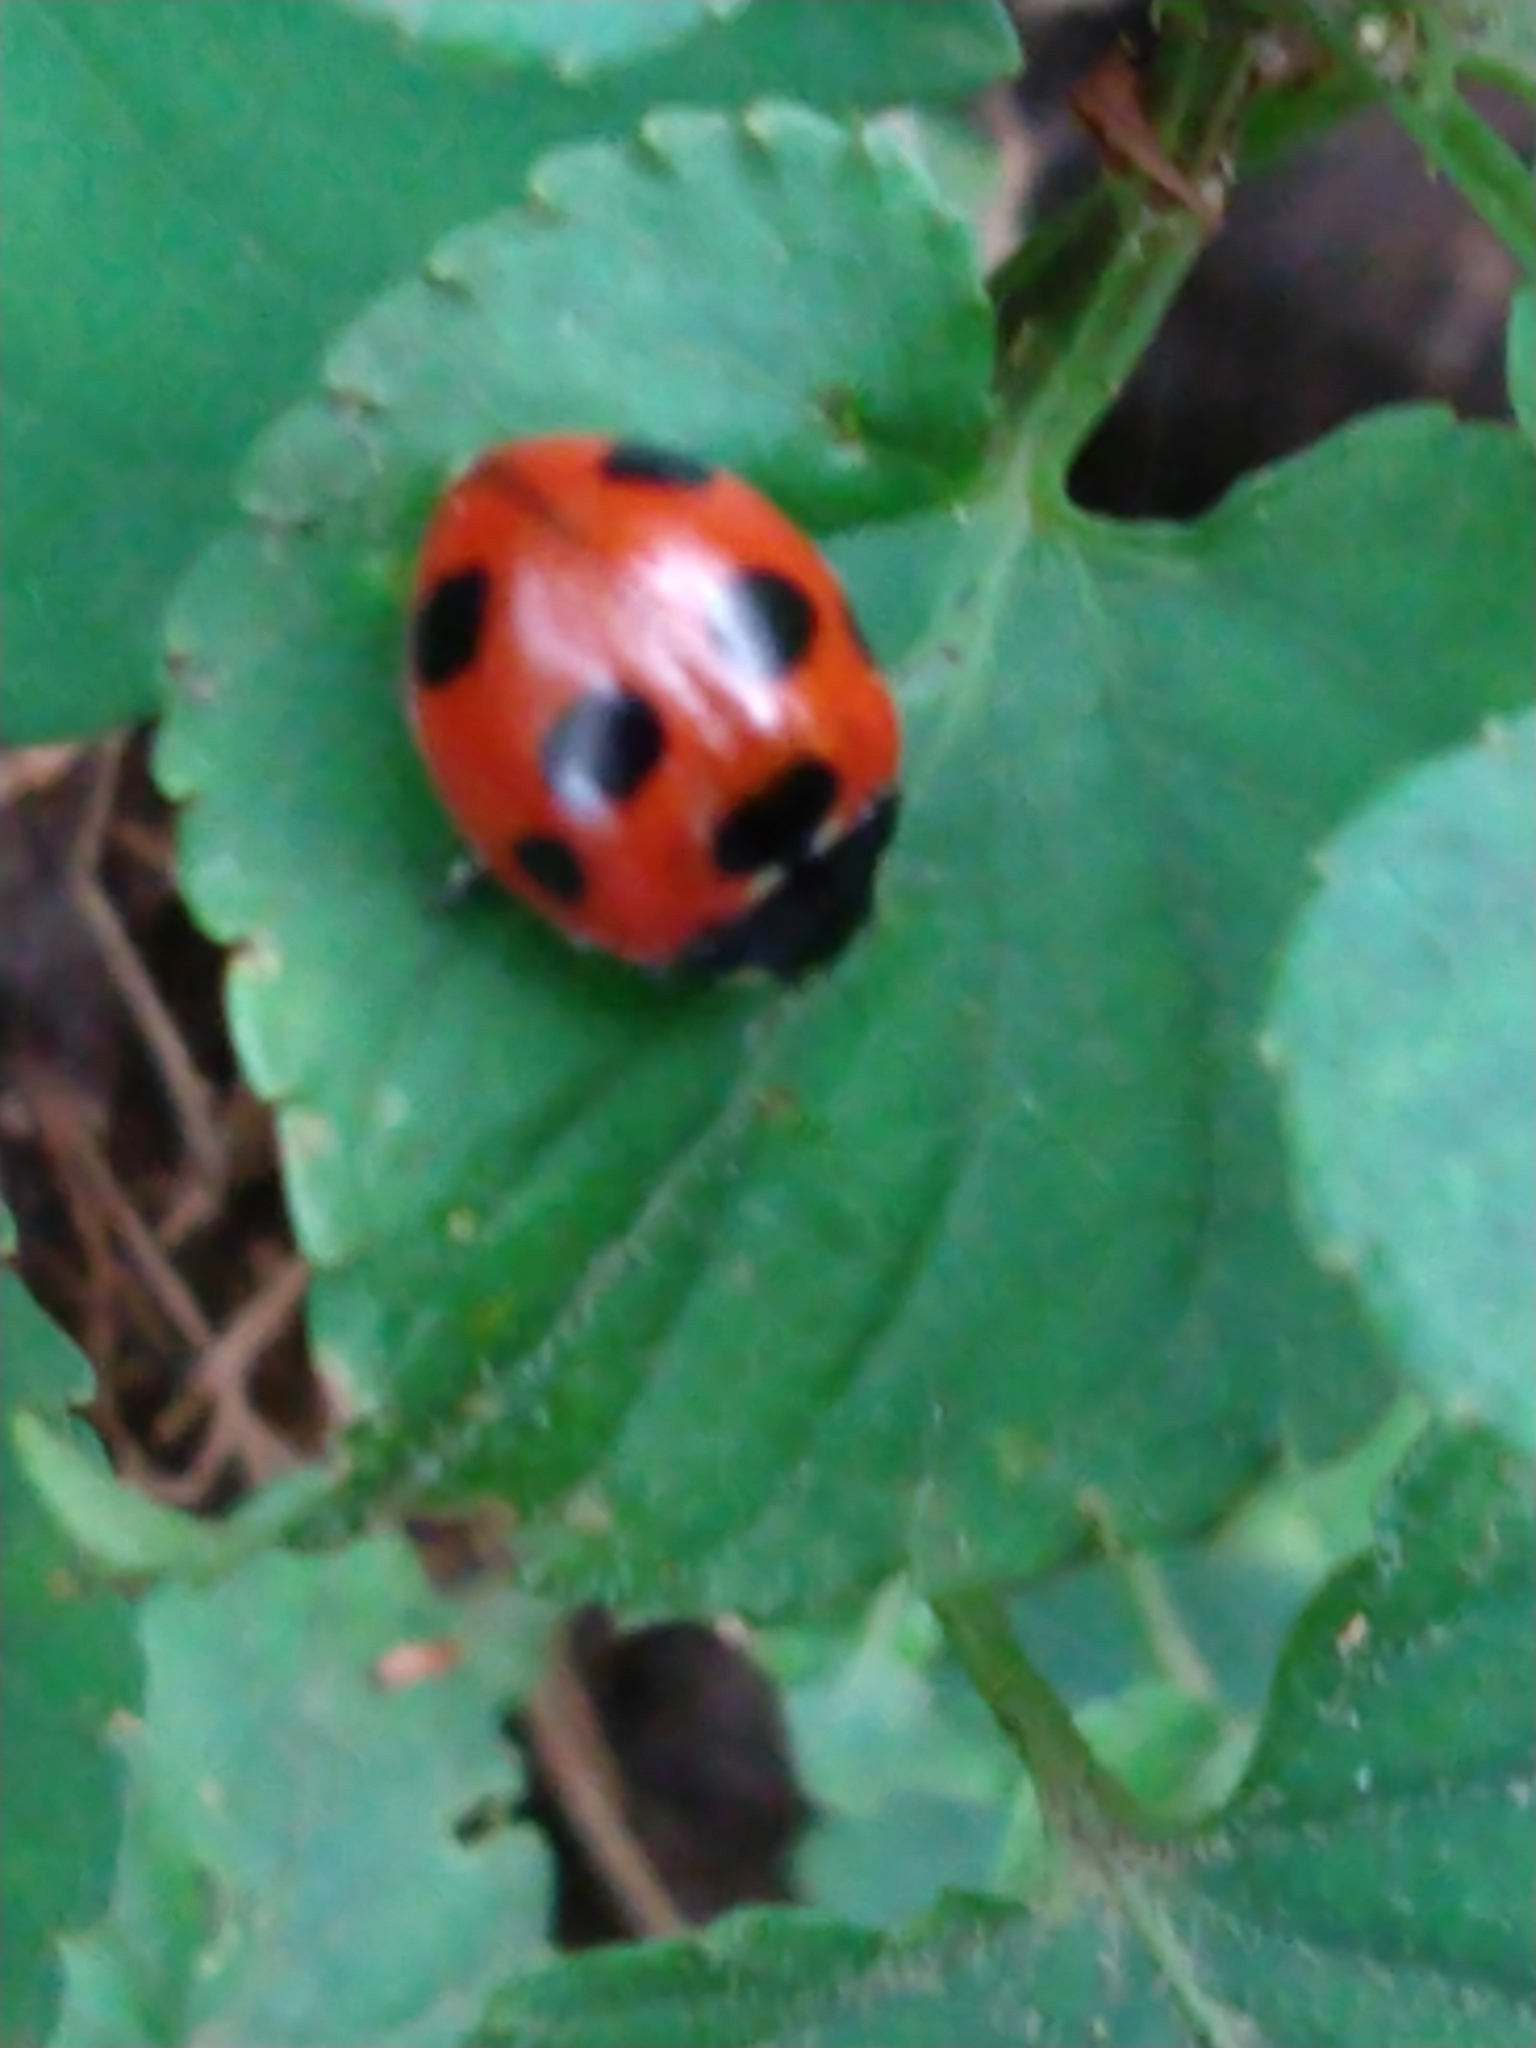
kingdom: Animalia
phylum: Arthropoda
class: Insecta
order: Coleoptera
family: Coccinellidae
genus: Coccinella
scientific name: Coccinella septempunctata
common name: Sevenspotted lady beetle
